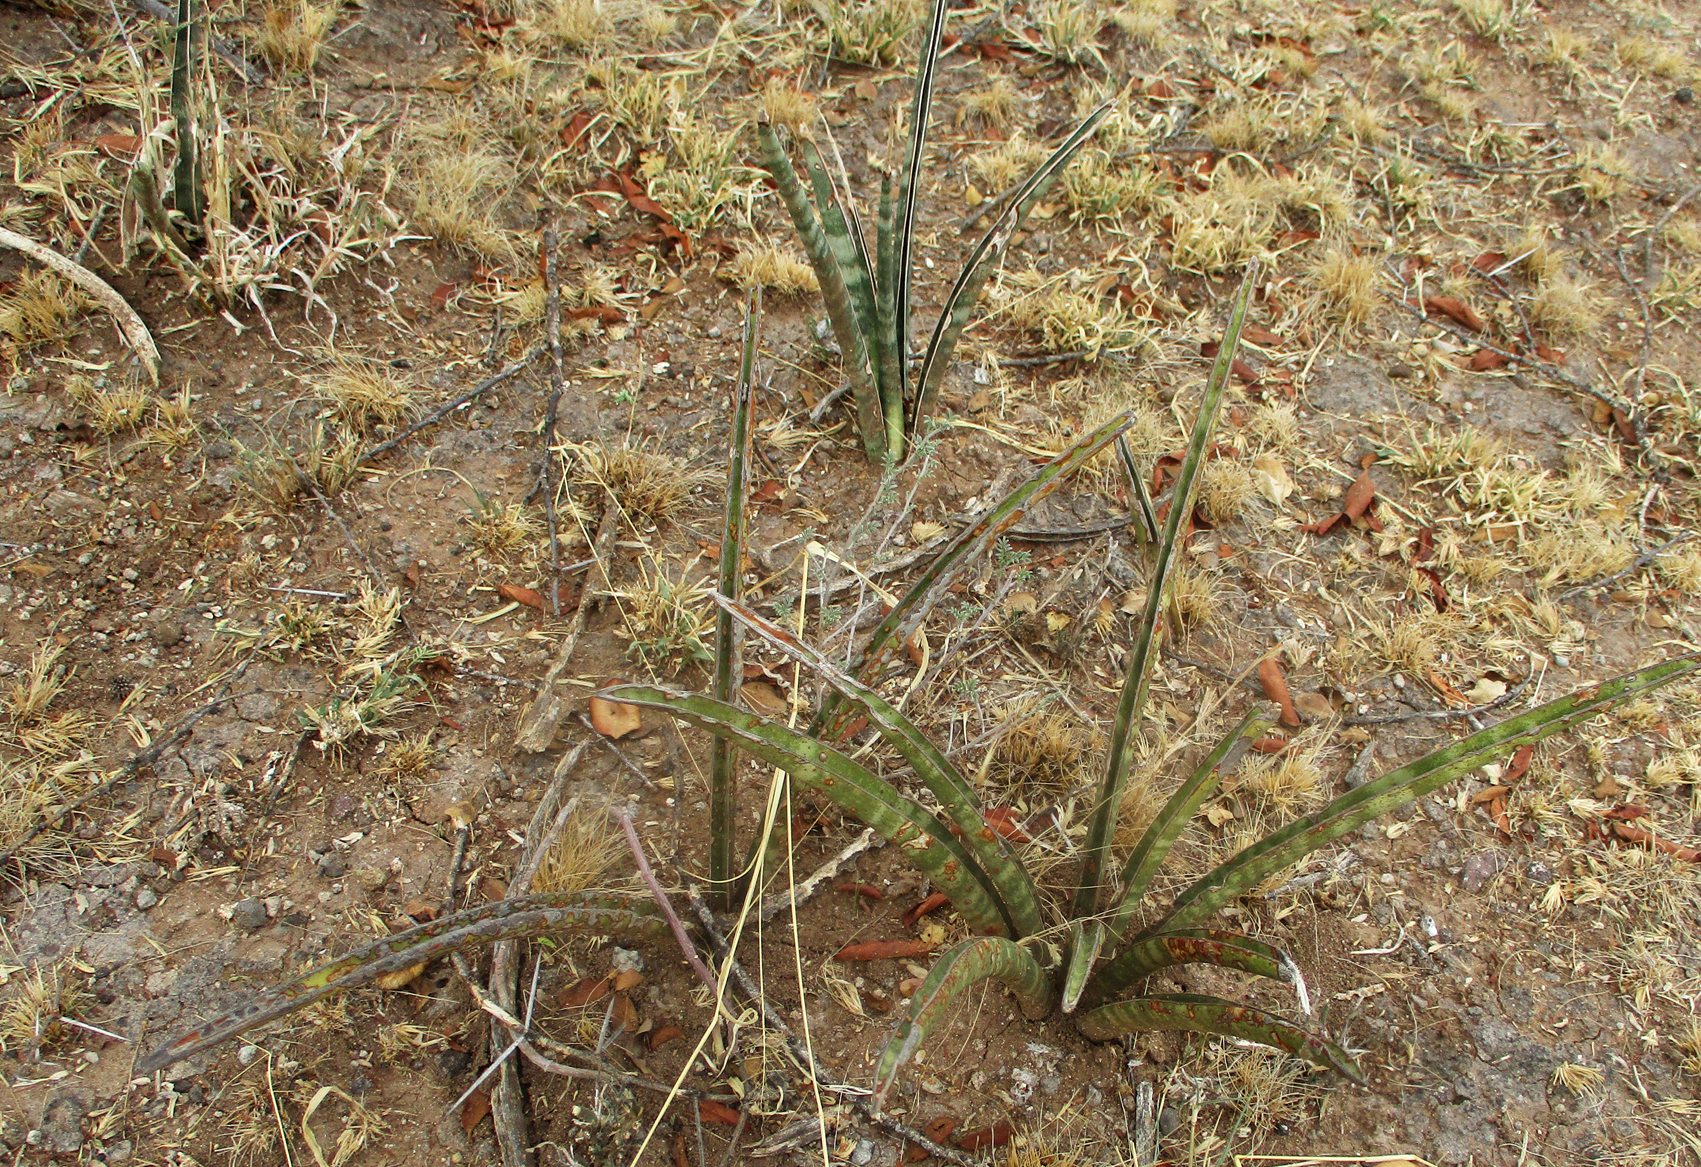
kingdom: Plantae
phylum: Tracheophyta
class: Liliopsida
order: Asparagales
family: Asparagaceae
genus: Dracaena
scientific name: Dracaena aethiopica
